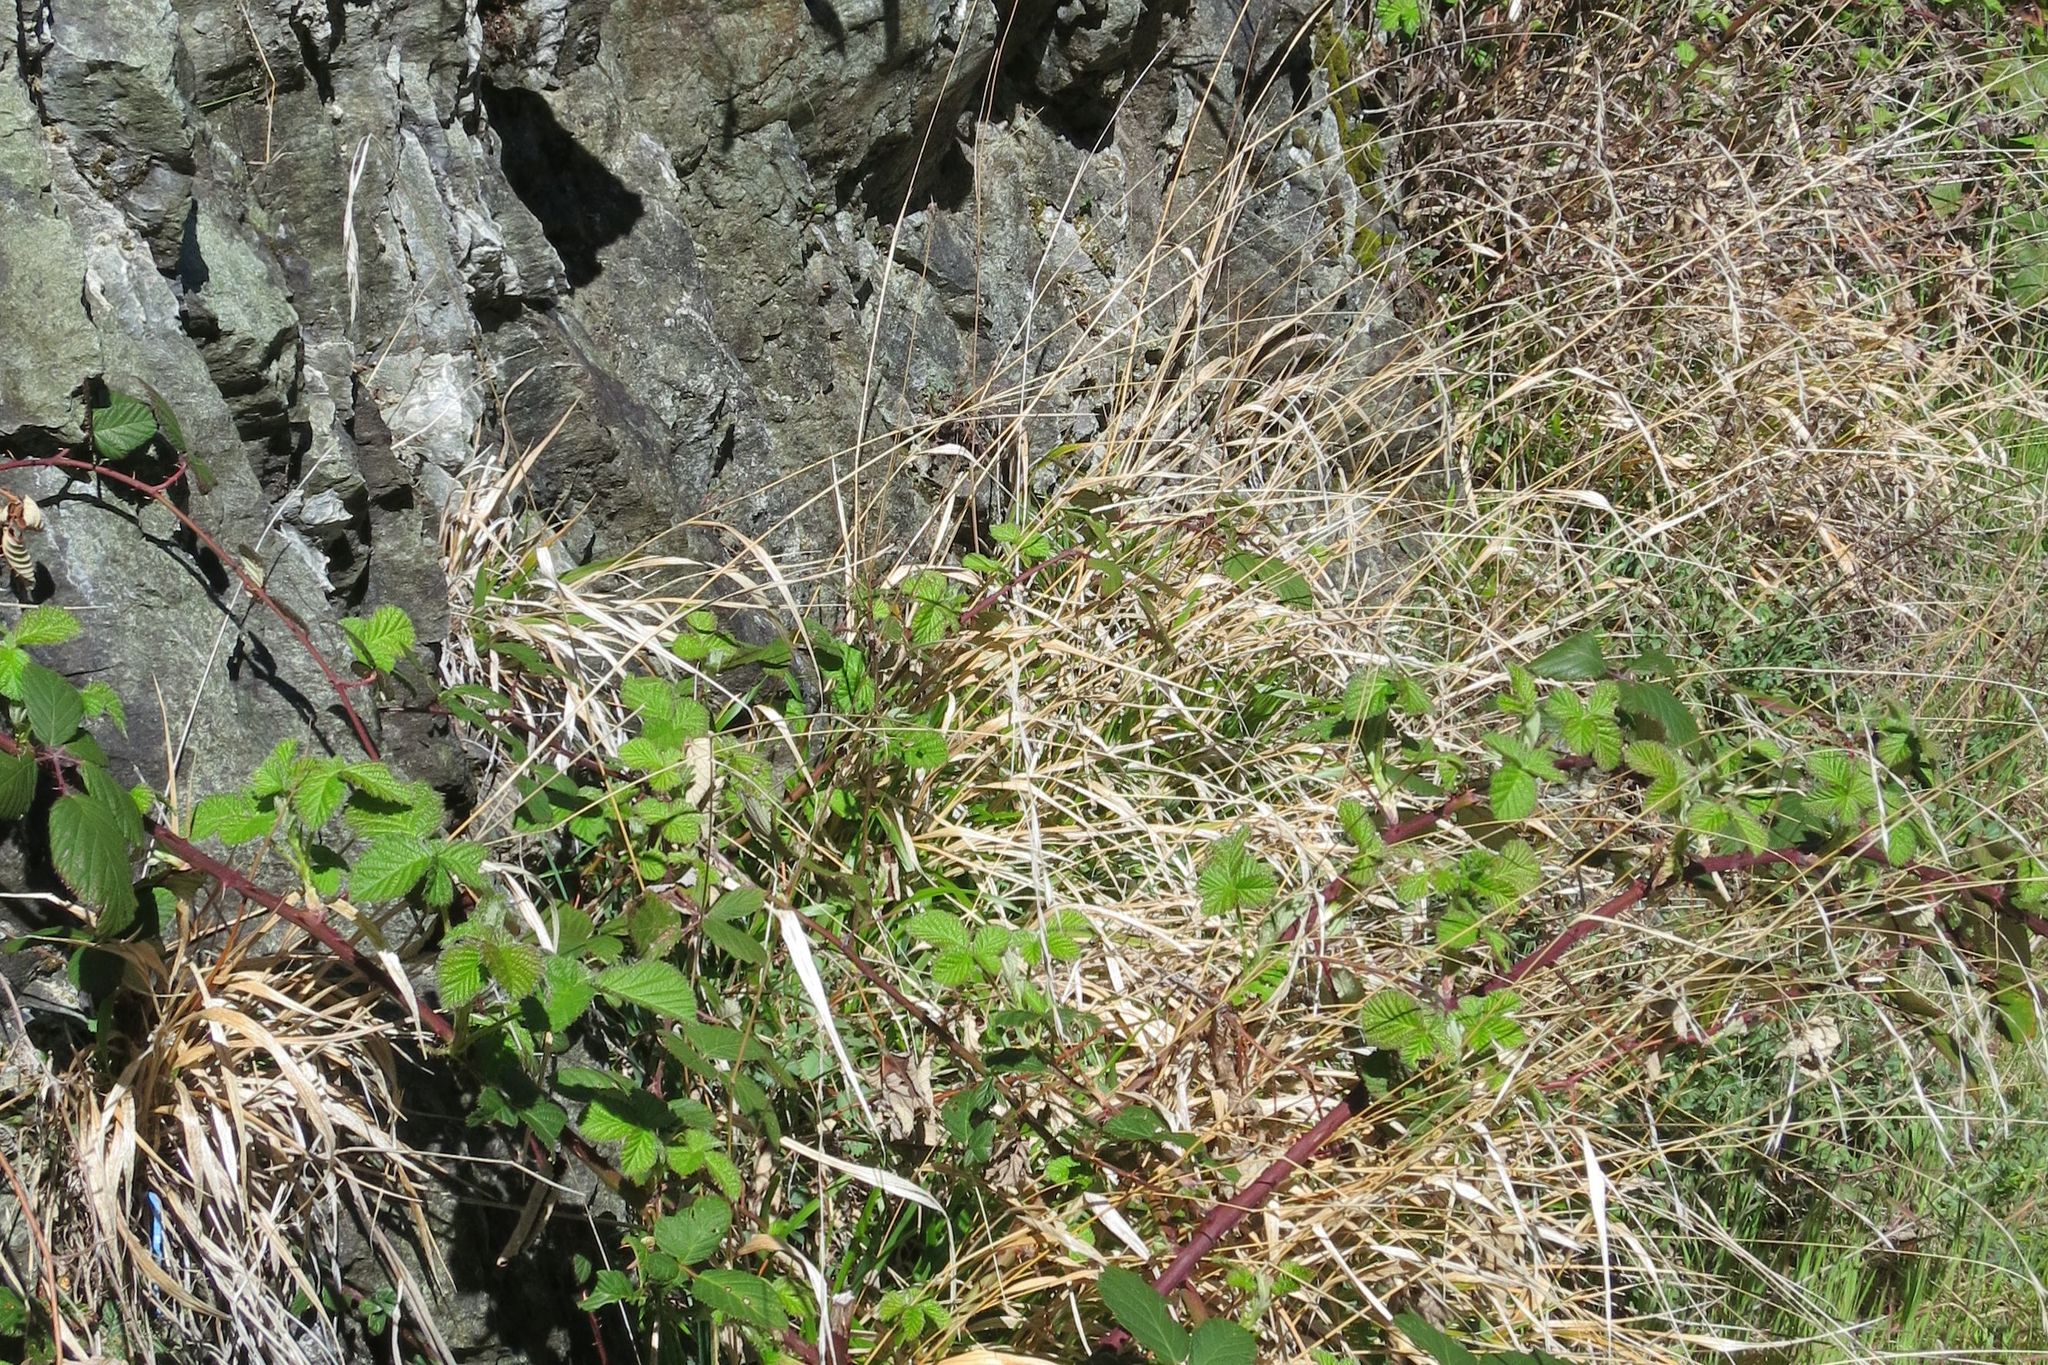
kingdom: Plantae
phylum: Tracheophyta
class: Liliopsida
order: Poales
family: Poaceae
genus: Brachypodium
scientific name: Brachypodium sylvaticum
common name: False-brome
